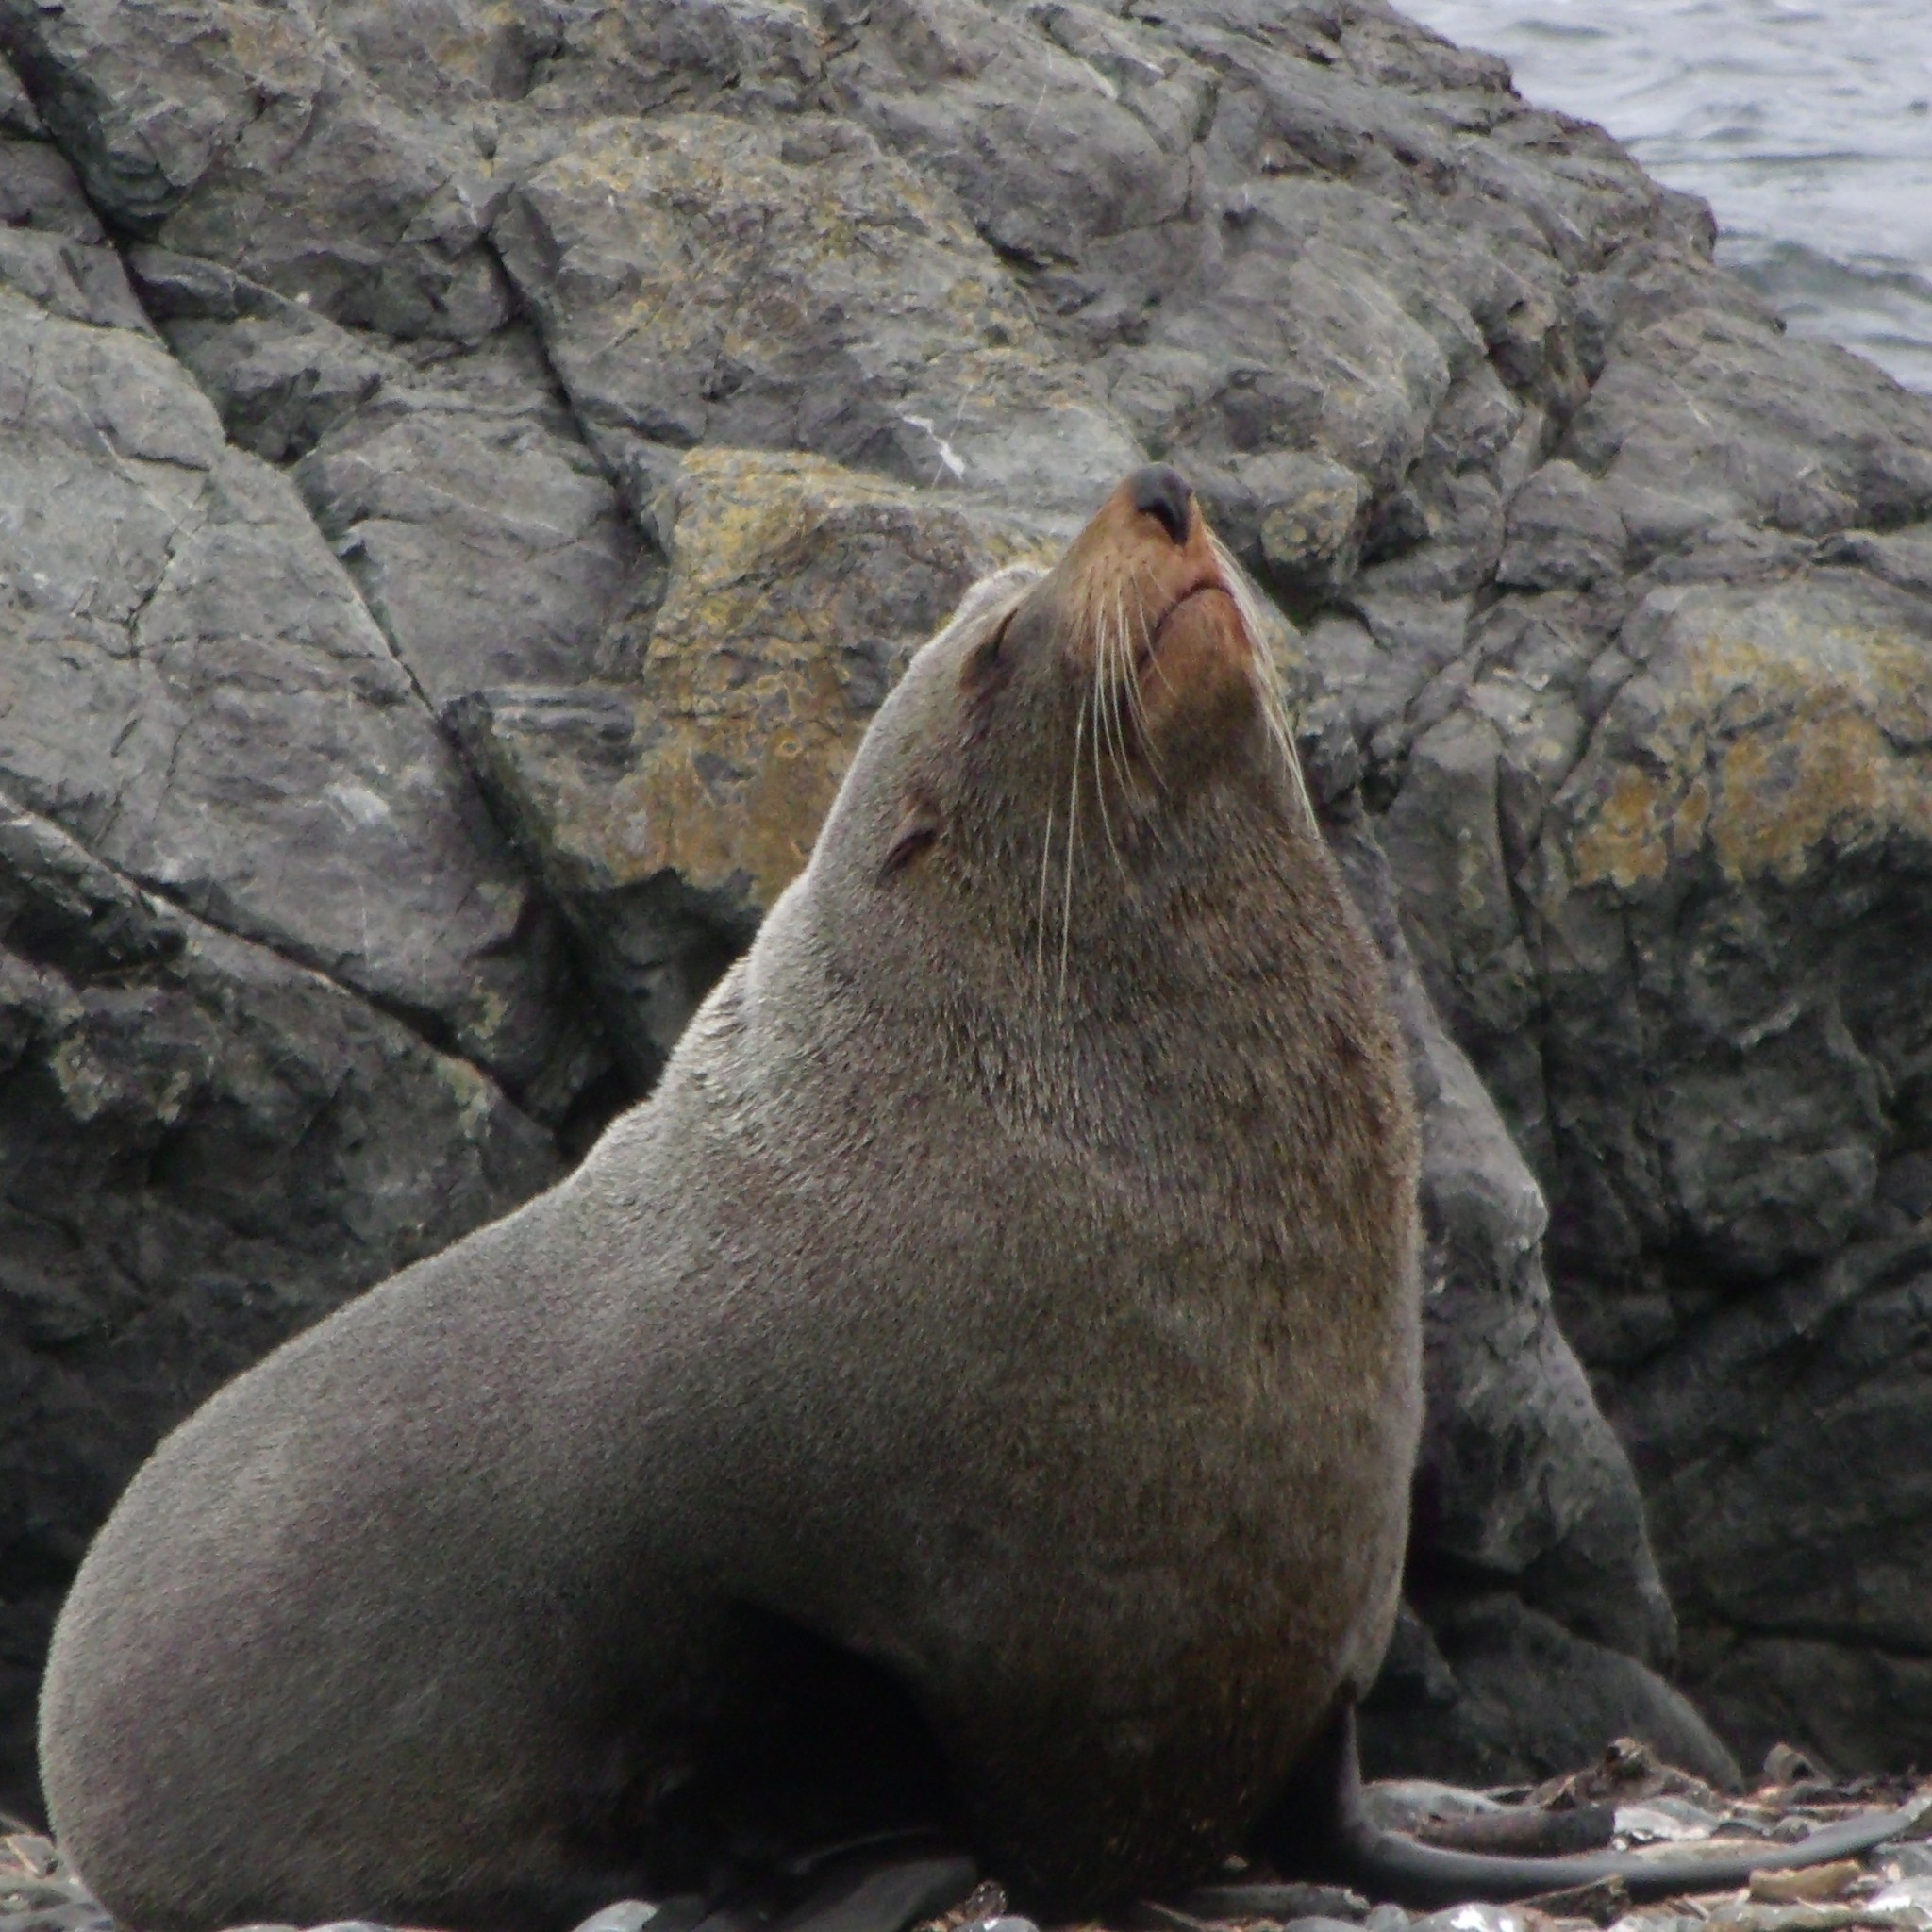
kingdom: Animalia
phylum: Chordata
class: Mammalia
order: Carnivora
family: Otariidae
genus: Arctocephalus
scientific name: Arctocephalus forsteri
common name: New zealand fur seal
